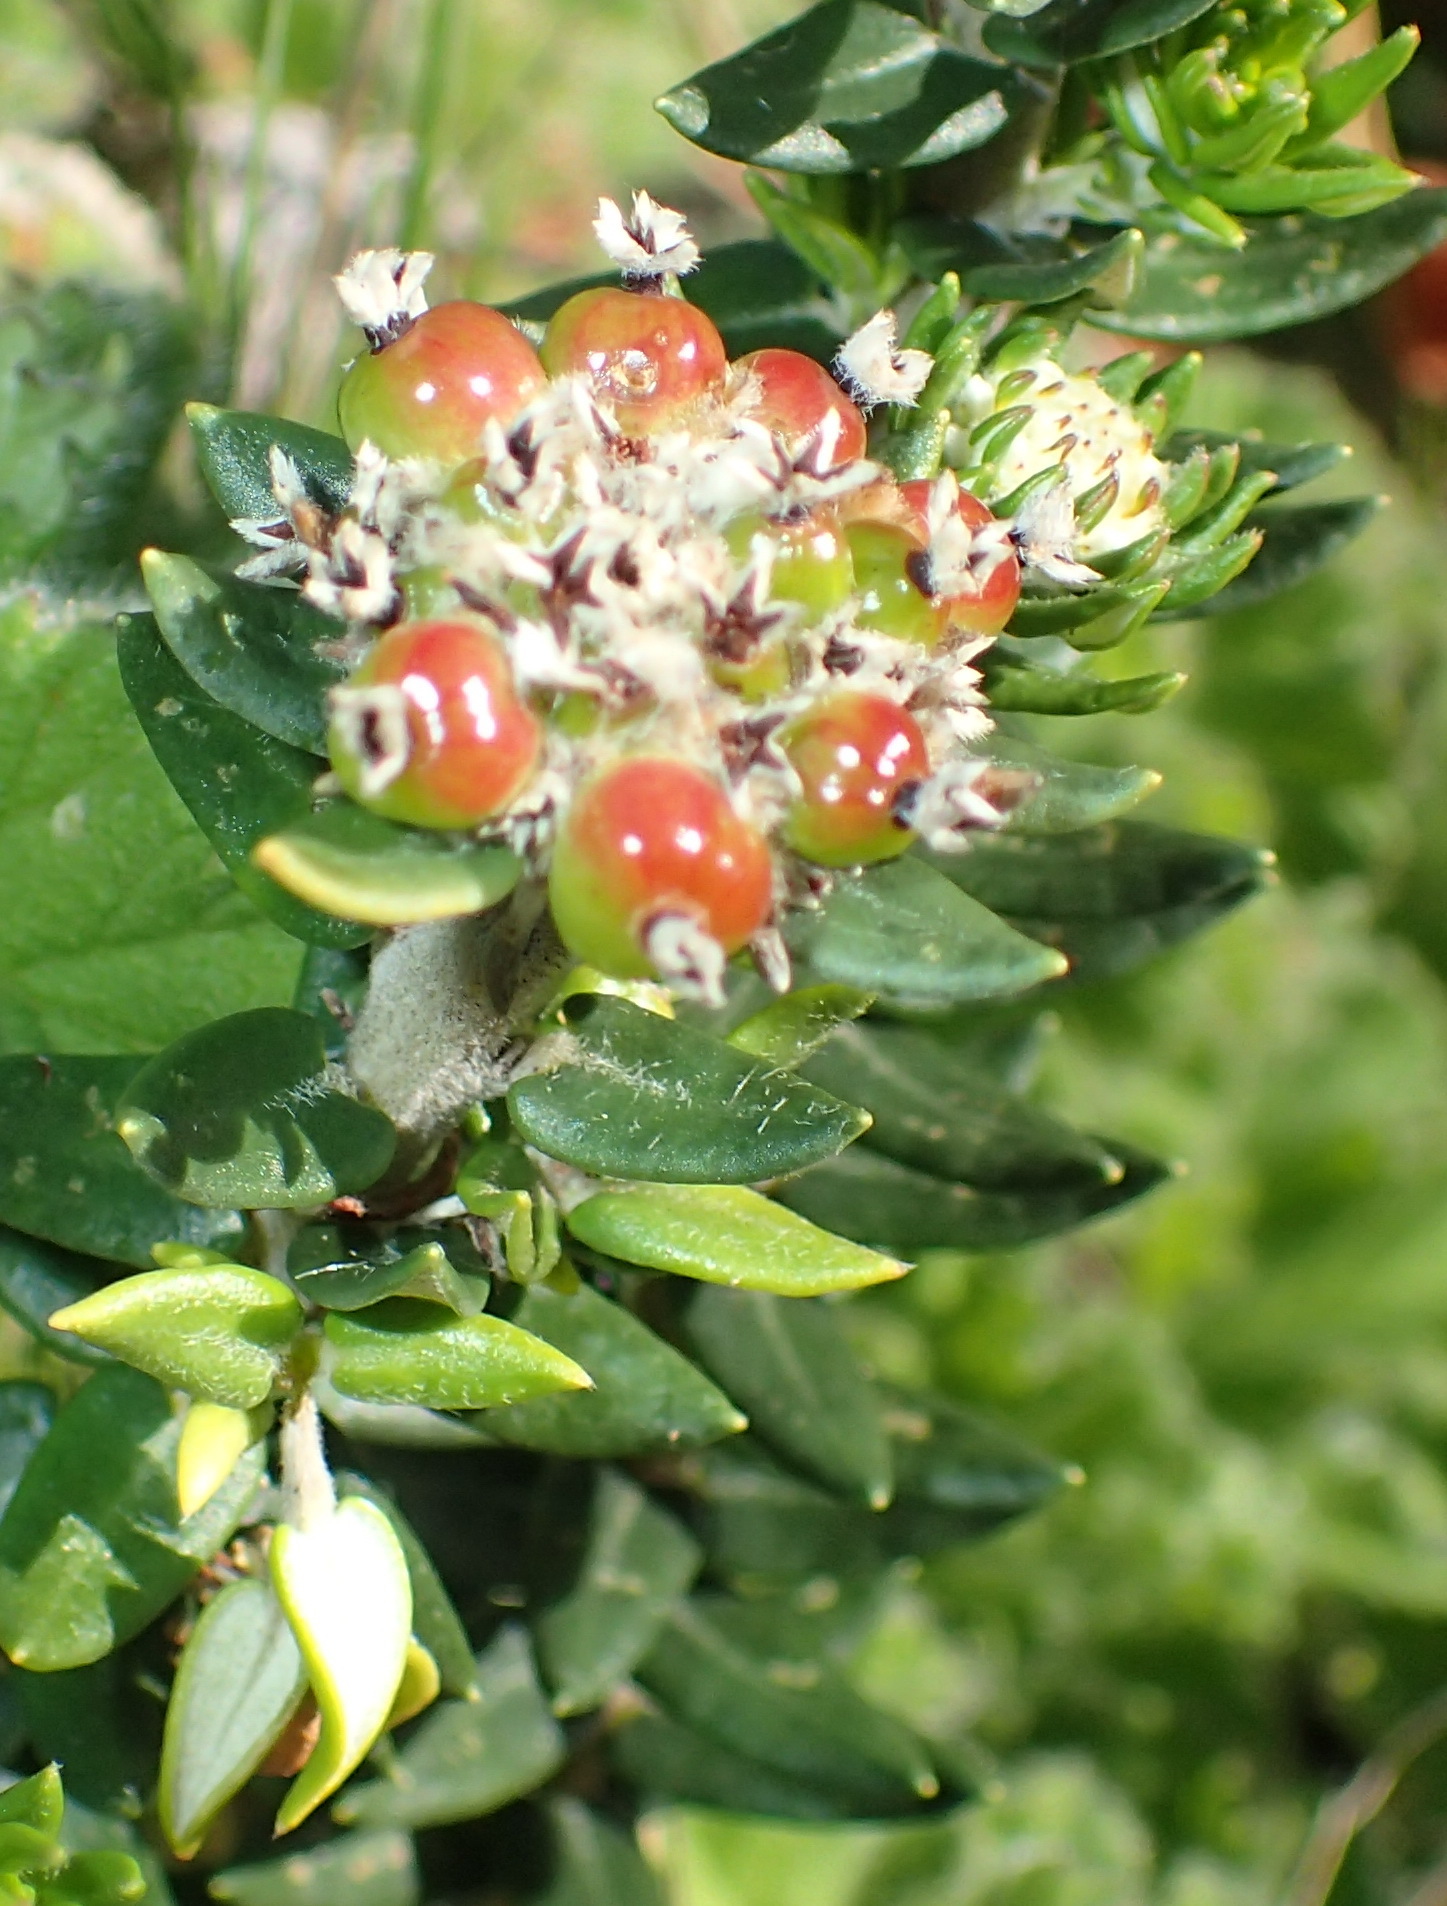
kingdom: Plantae
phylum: Tracheophyta
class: Magnoliopsida
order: Rosales
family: Rhamnaceae
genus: Phylica
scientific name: Phylica litoralis
